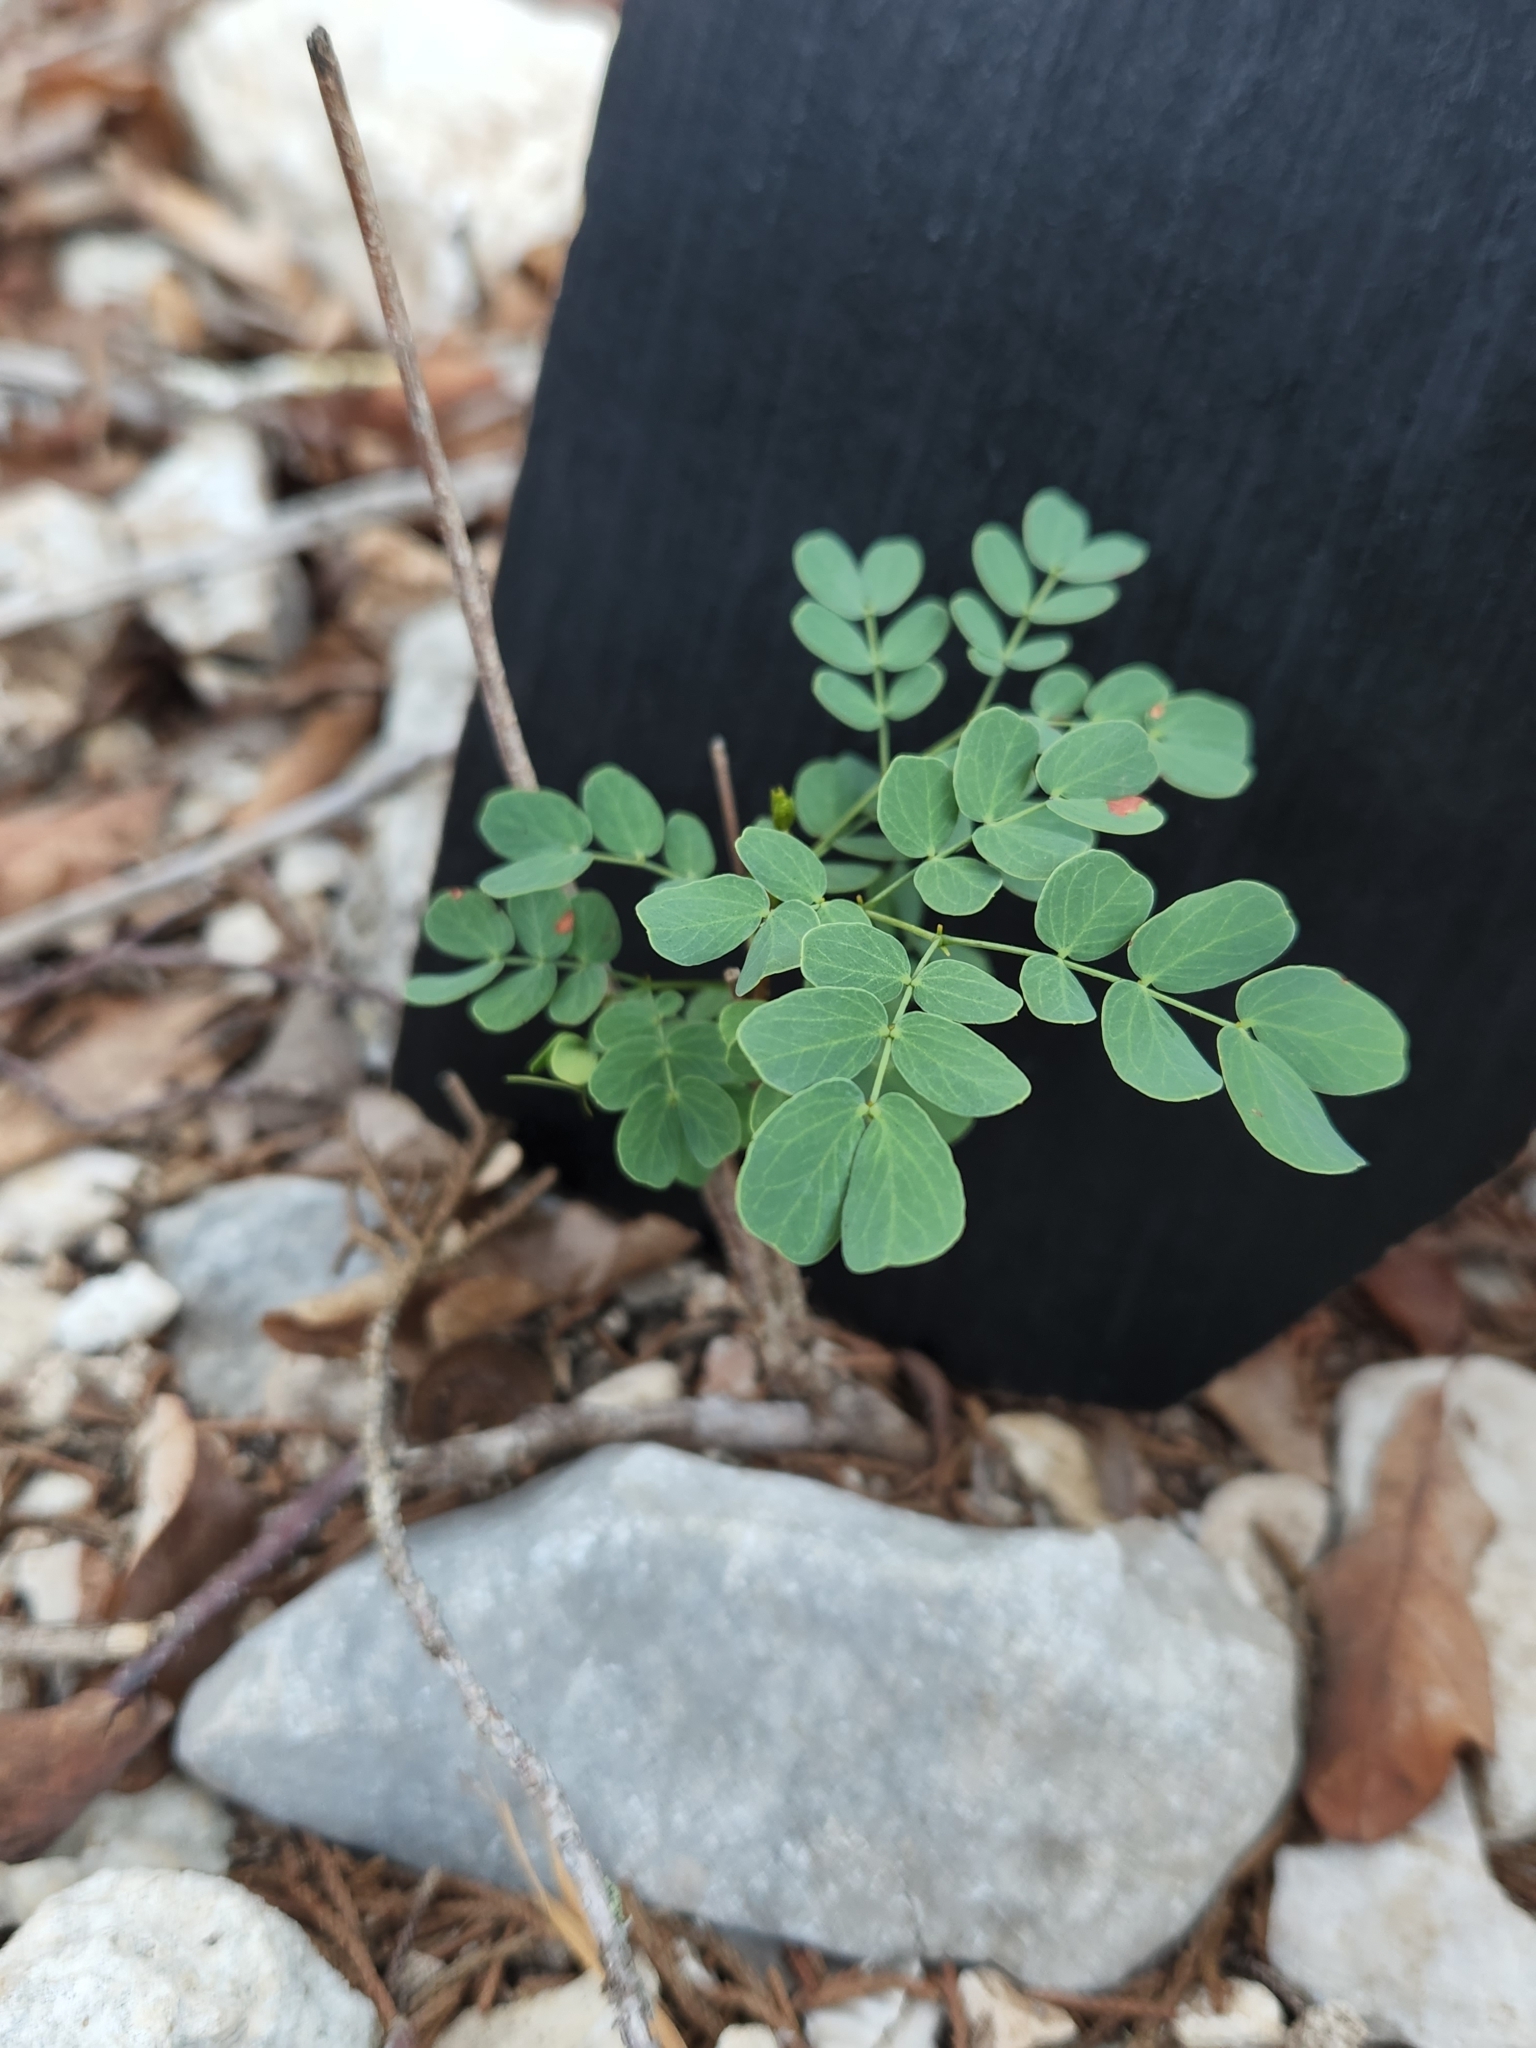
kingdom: Plantae
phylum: Tracheophyta
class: Magnoliopsida
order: Fabales
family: Fabaceae
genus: Leucaena
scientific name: Leucaena retusa
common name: Littleleaf leadtree
